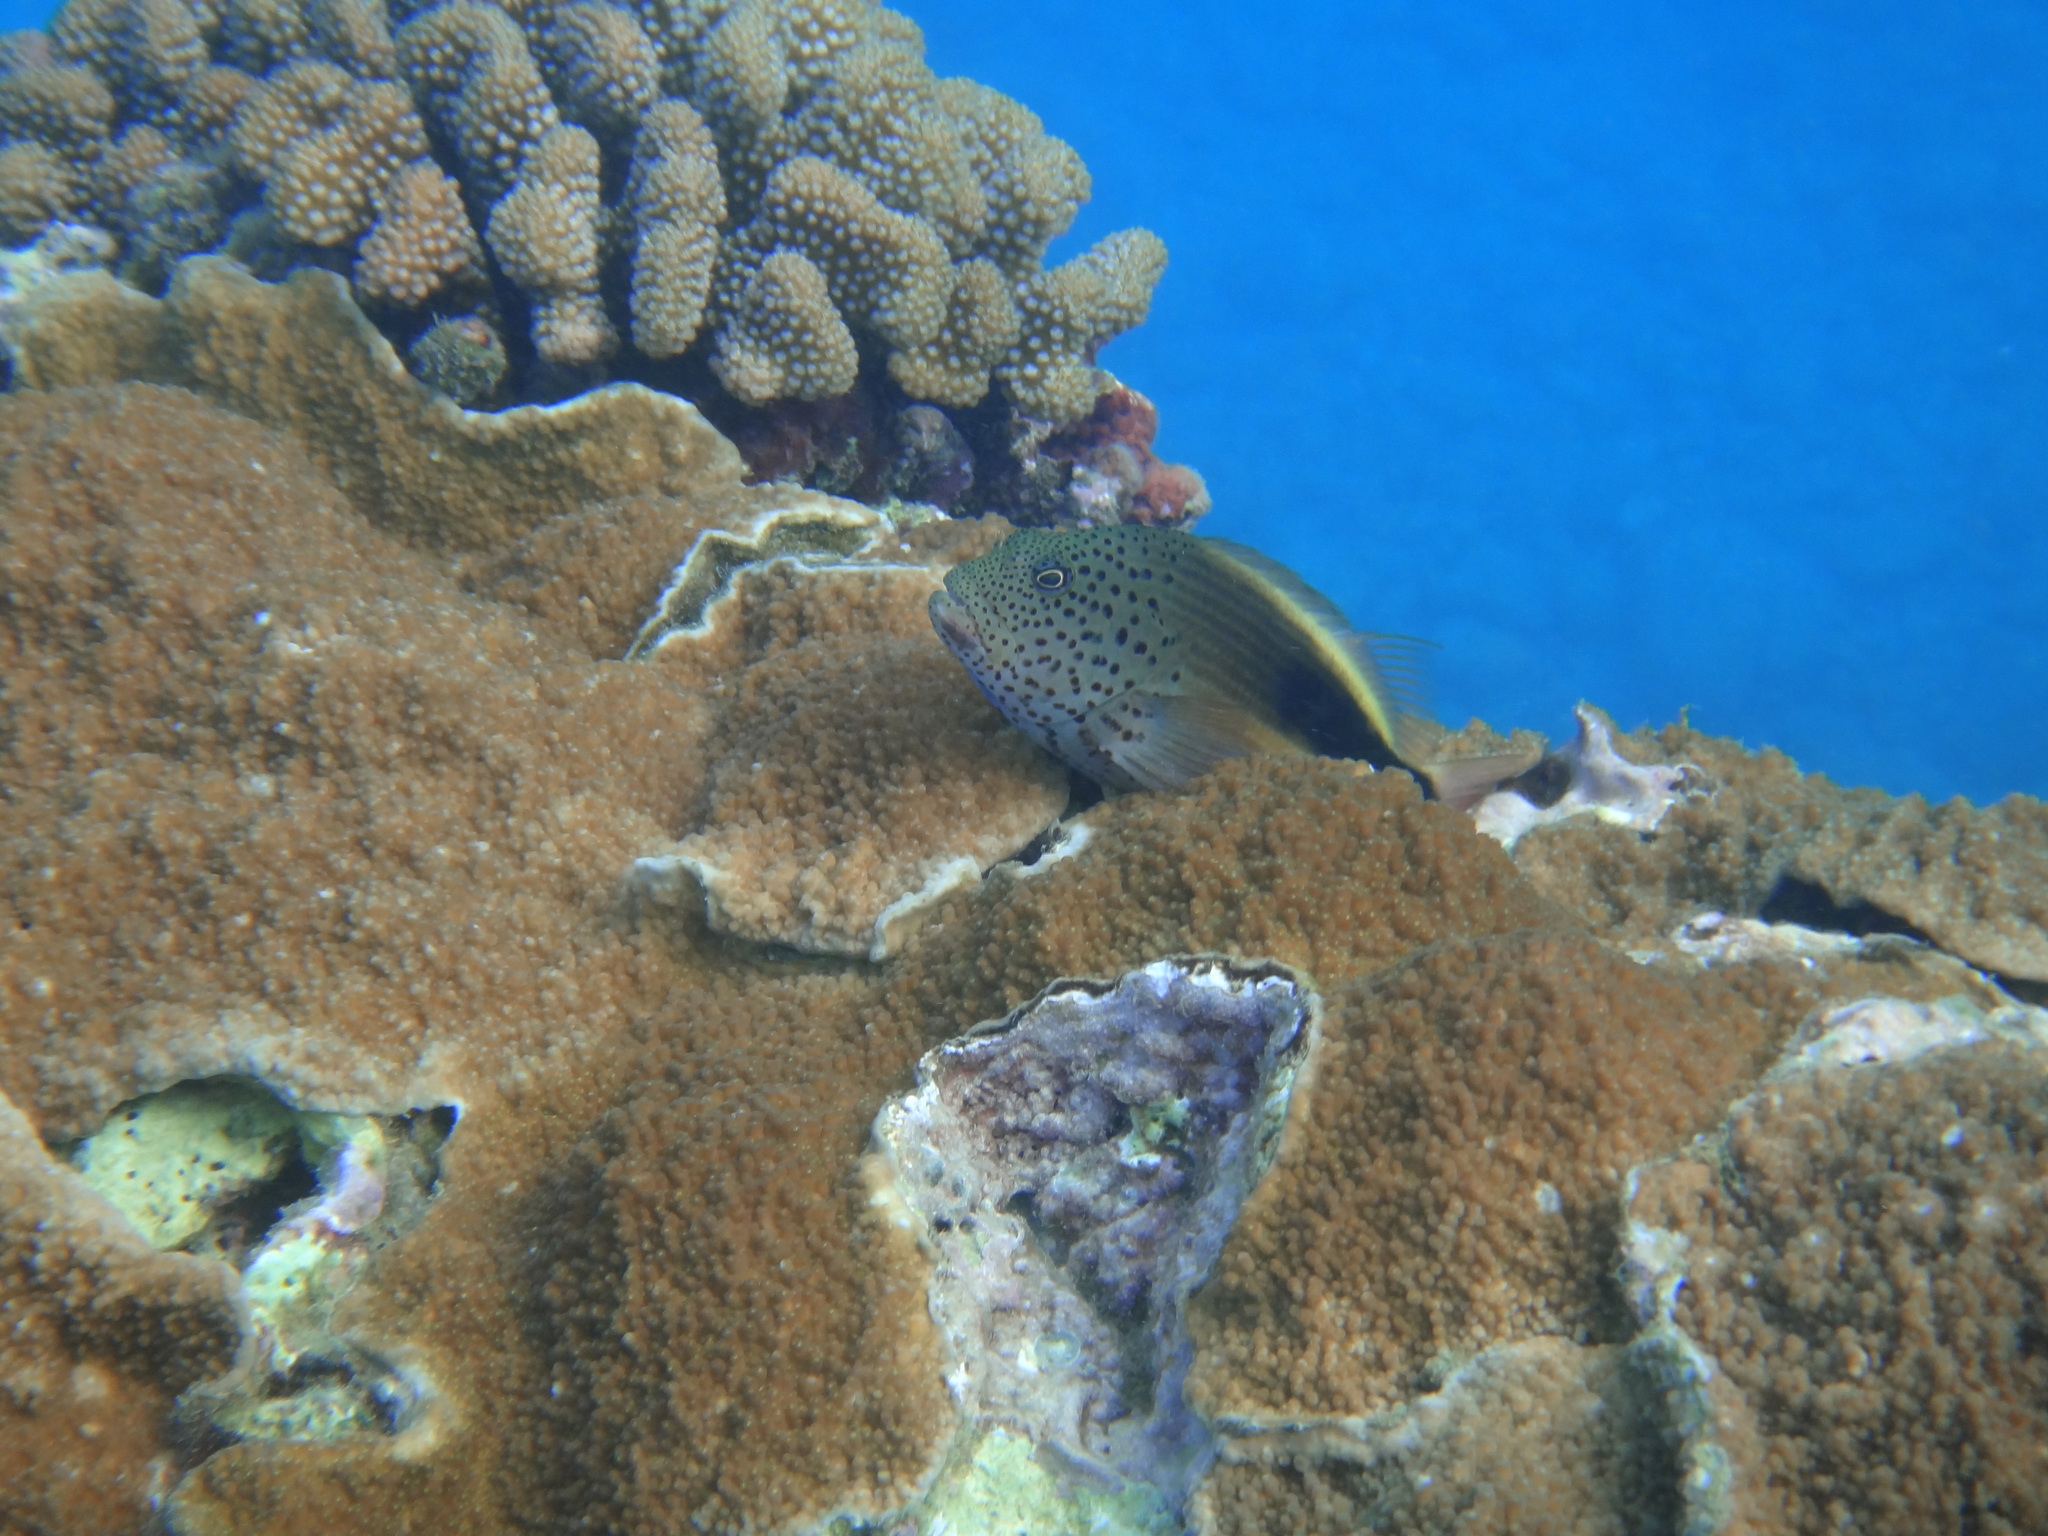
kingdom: Animalia
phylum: Chordata
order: Perciformes
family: Cirrhitidae
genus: Paracirrhites
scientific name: Paracirrhites forsteri
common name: Freckled hawkfish
